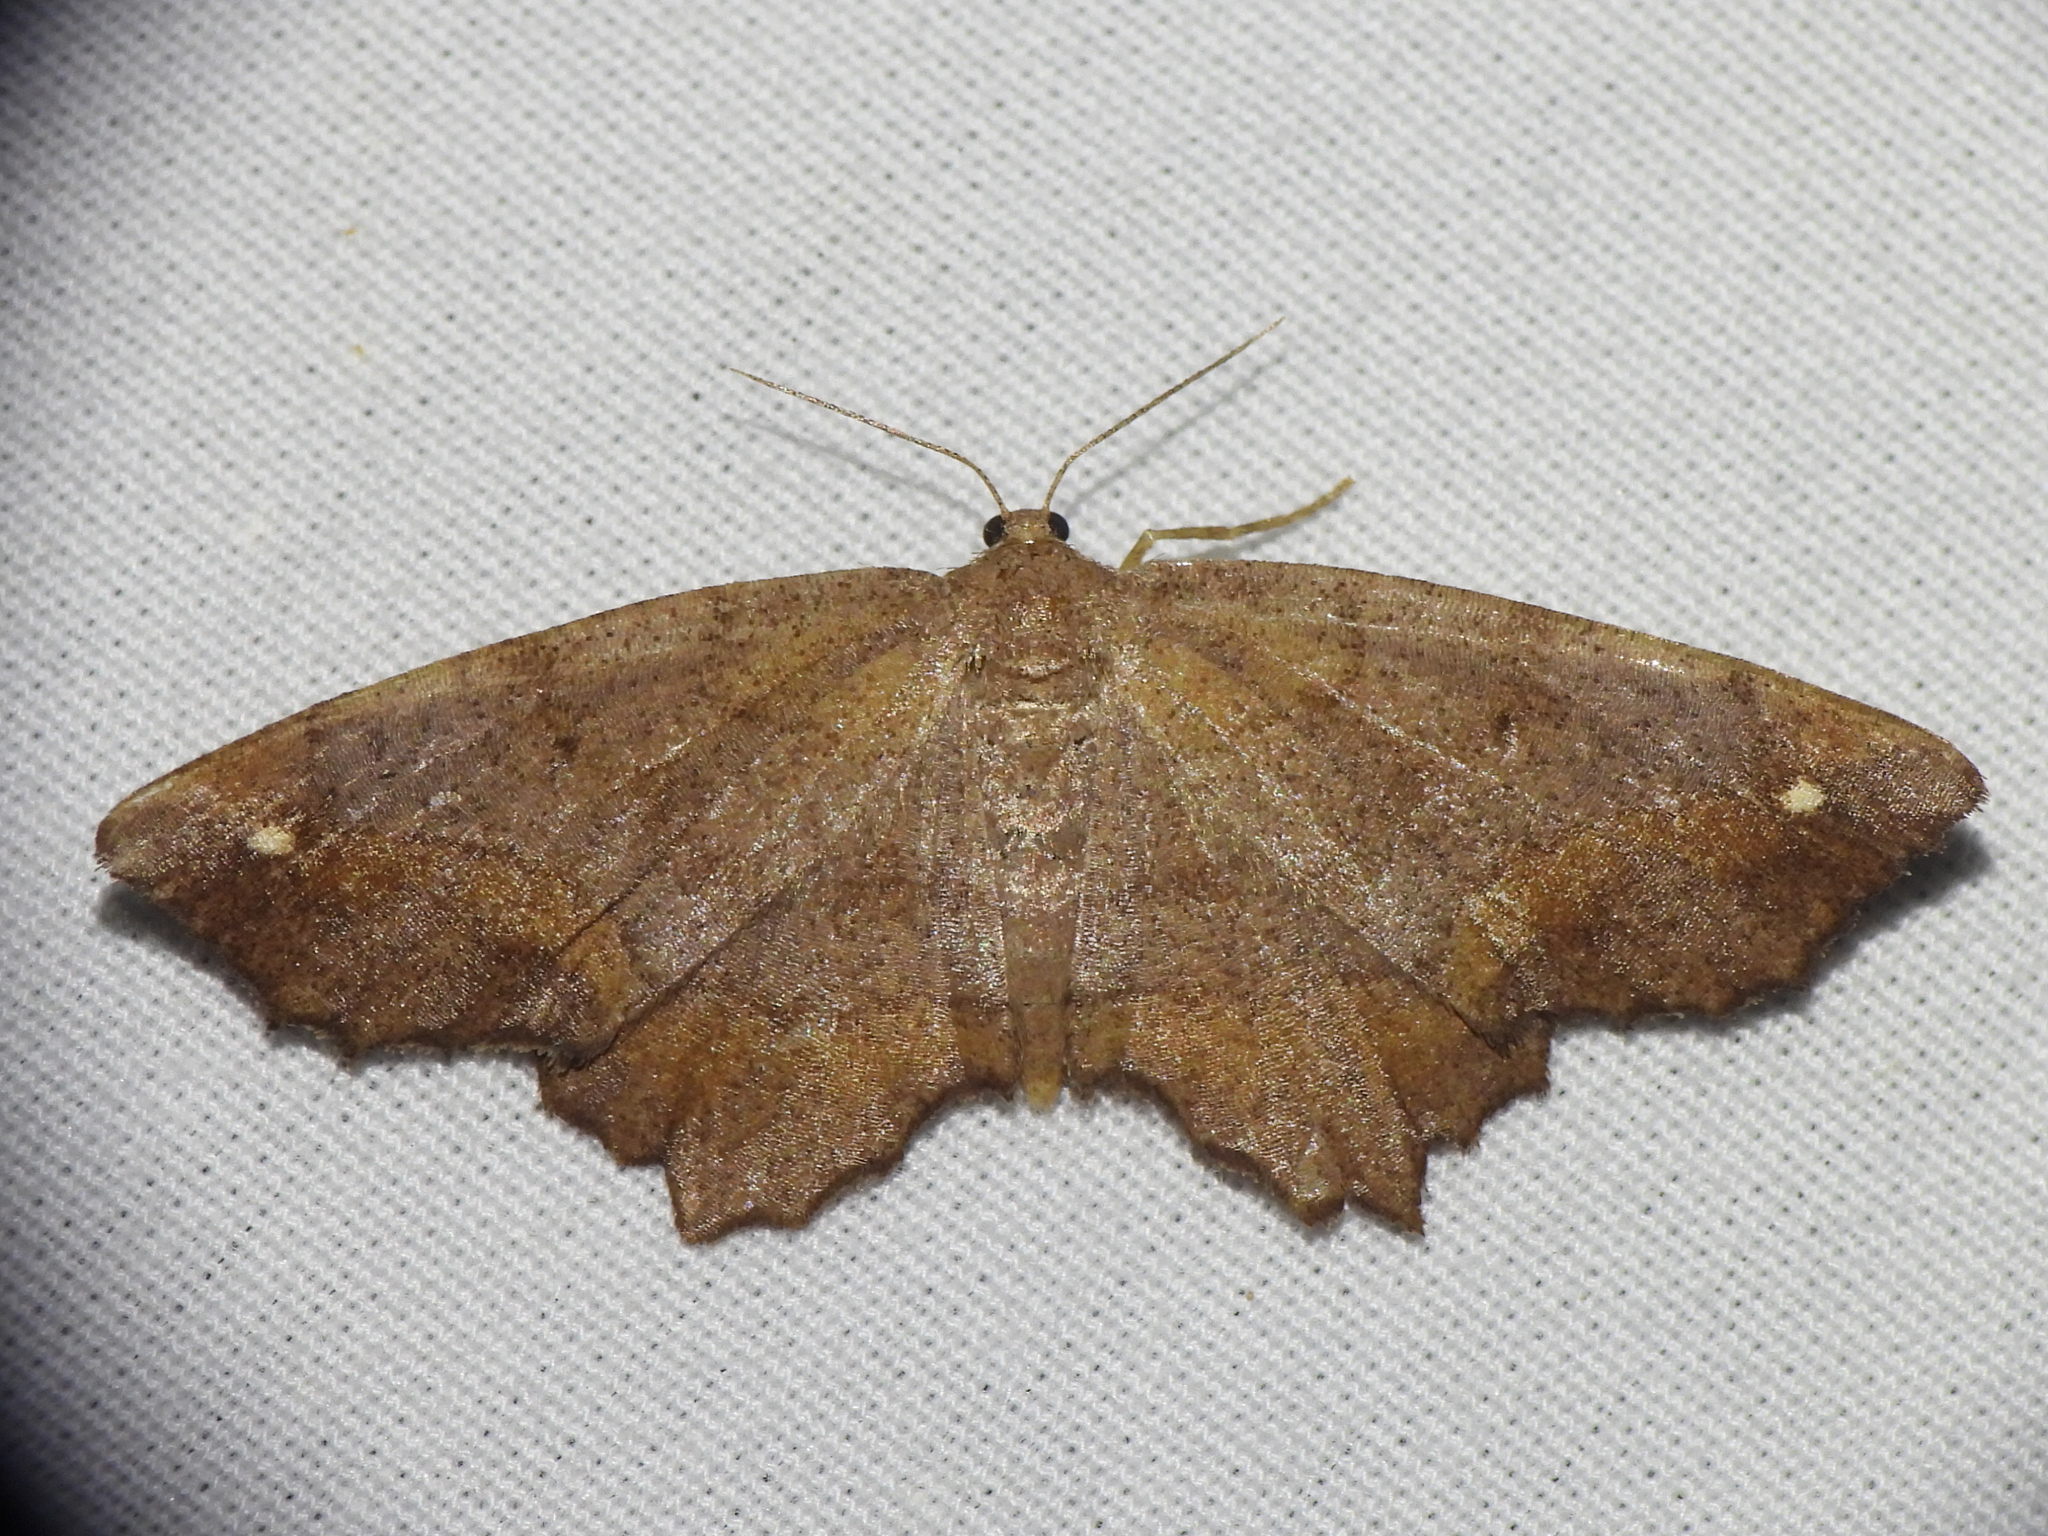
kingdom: Animalia
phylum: Arthropoda
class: Insecta
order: Lepidoptera
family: Geometridae
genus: Hypagyrtis
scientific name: Hypagyrtis esther
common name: Esther moth
